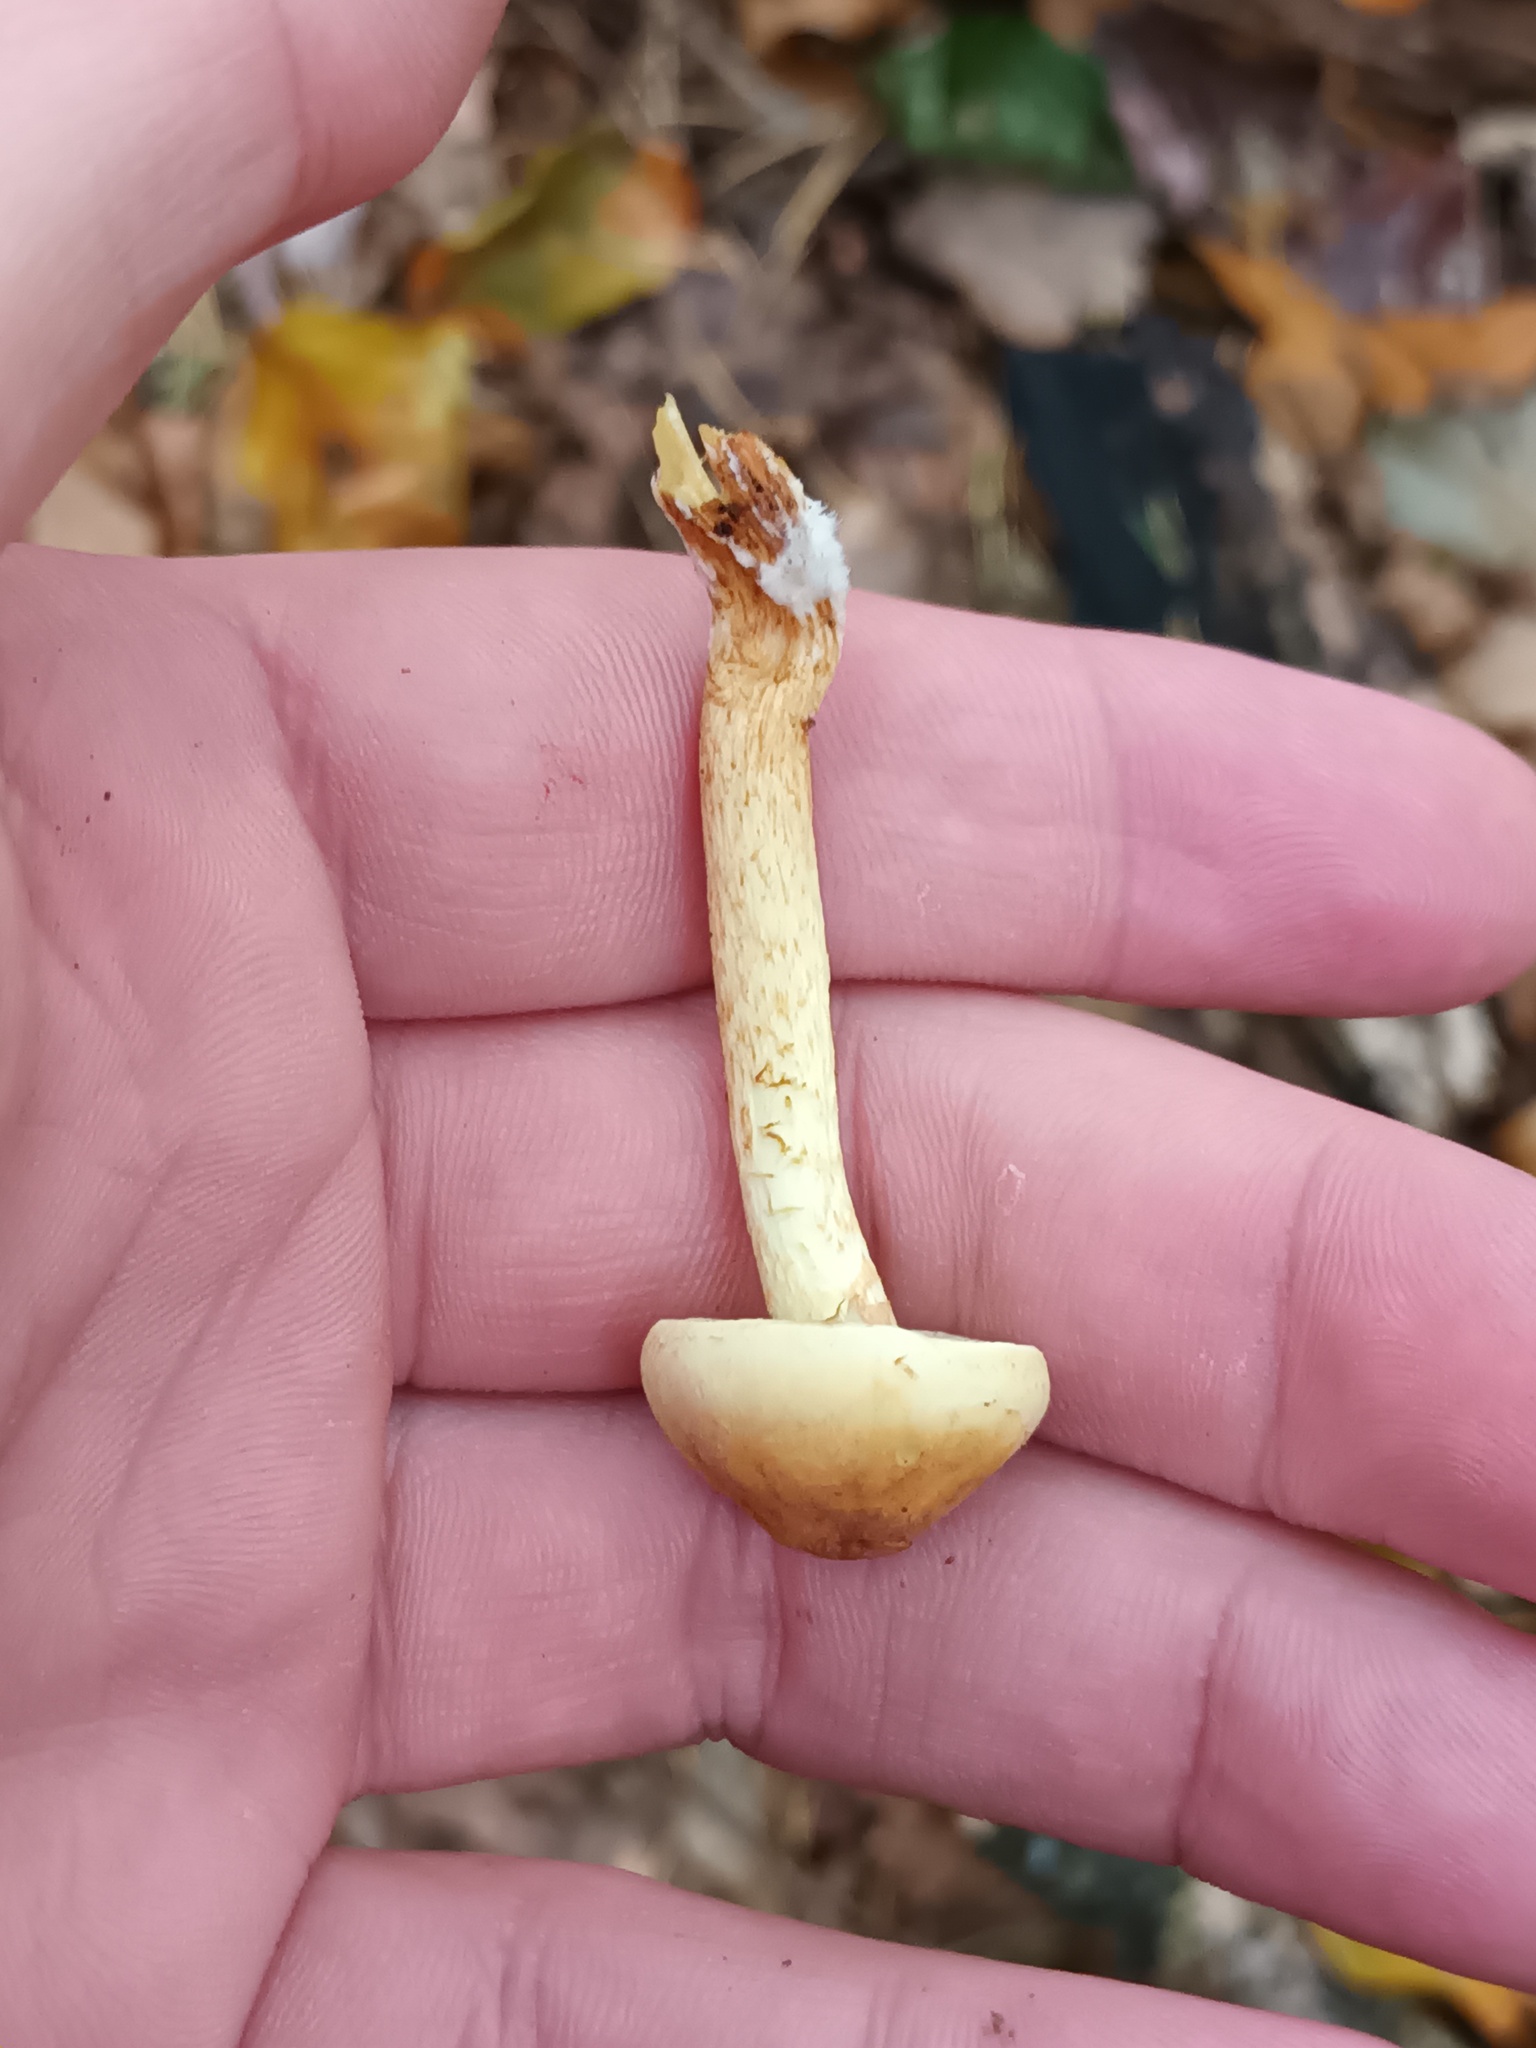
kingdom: Fungi
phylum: Basidiomycota
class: Agaricomycetes
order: Agaricales
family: Strophariaceae
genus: Hypholoma
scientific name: Hypholoma fasciculare
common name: Sulphur tuft
